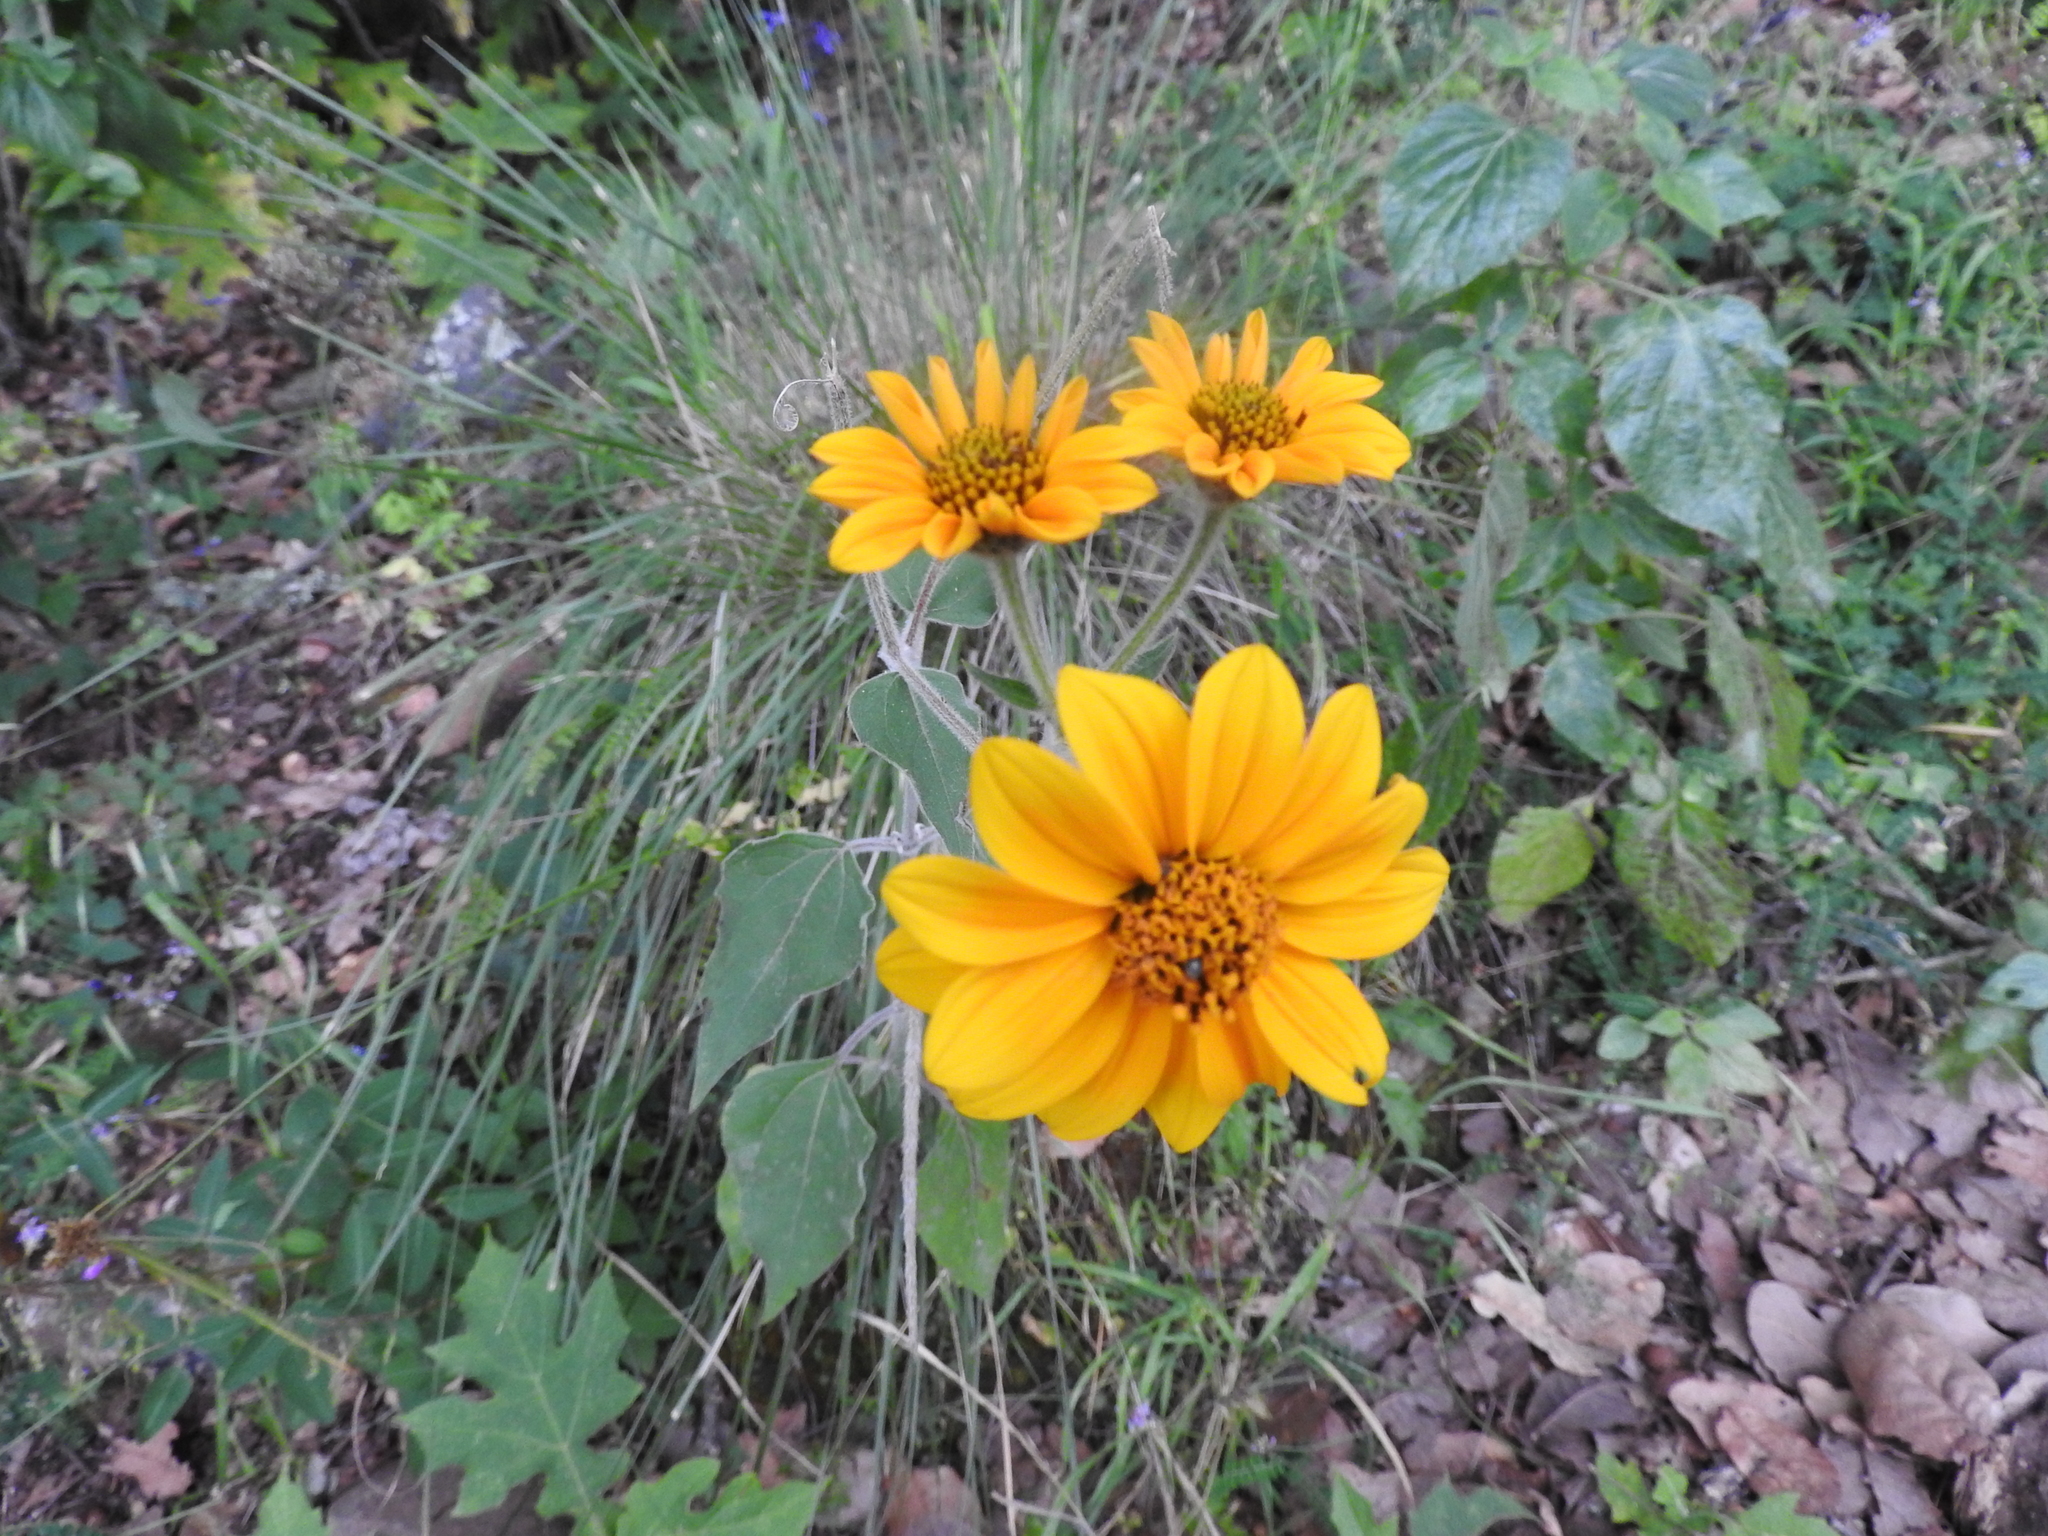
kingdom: Plantae
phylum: Tracheophyta
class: Magnoliopsida
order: Asterales
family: Asteraceae
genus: Tithonia
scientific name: Tithonia tubaeformis
